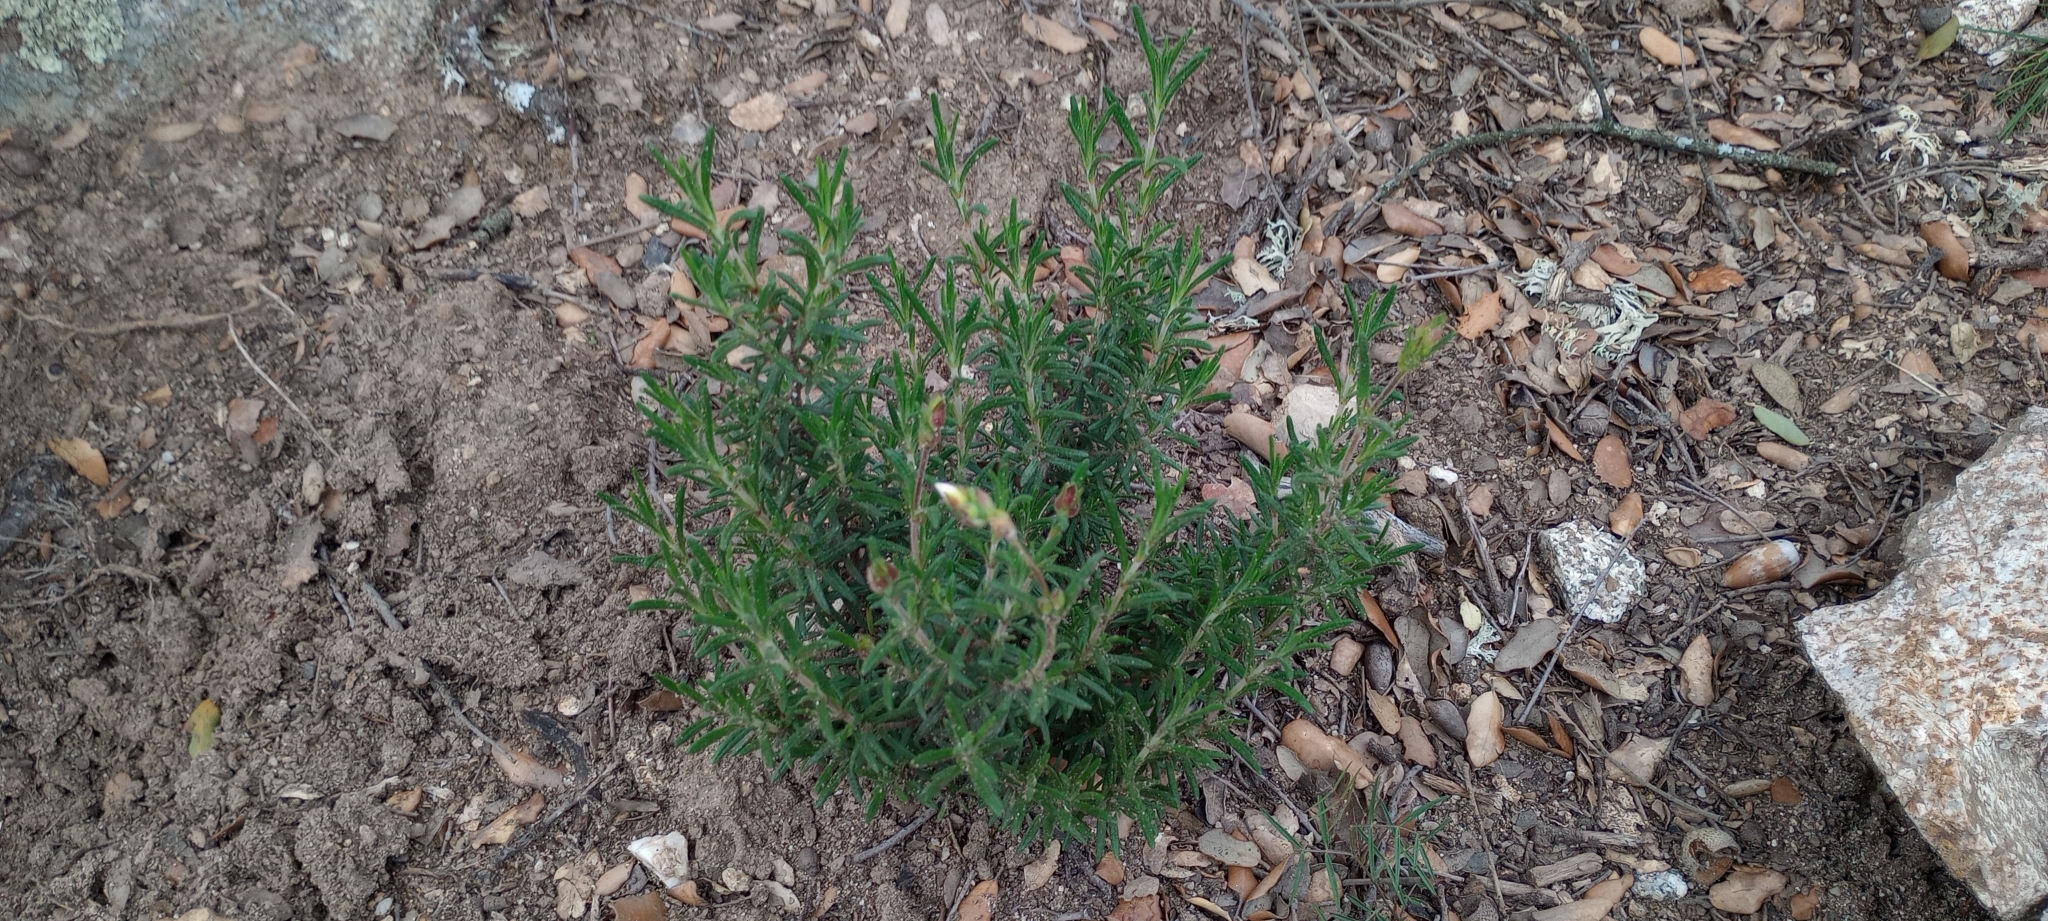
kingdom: Plantae
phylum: Tracheophyta
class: Magnoliopsida
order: Malvales
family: Cistaceae
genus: Halimium
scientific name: Halimium umbellatum
